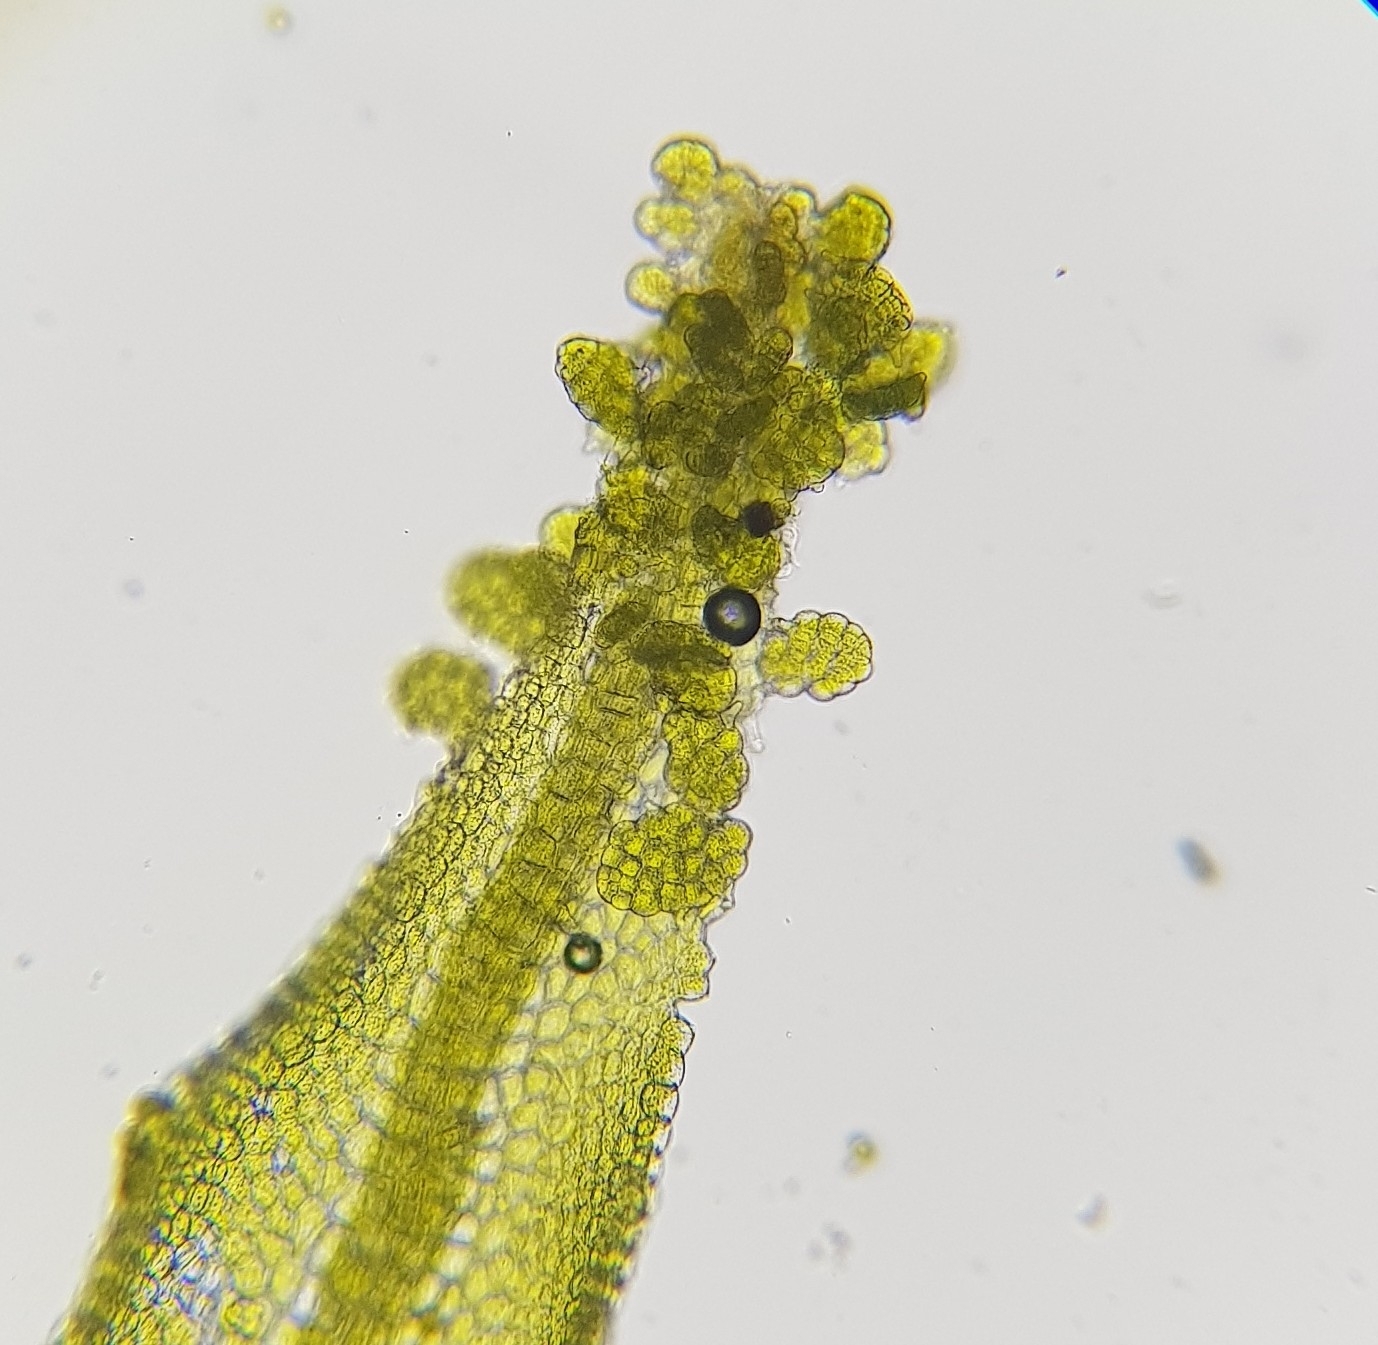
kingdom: Plantae
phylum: Marchantiophyta
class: Jungermanniopsida
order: Metzgeriales
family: Metzgeriaceae
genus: Metzgeria
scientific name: Metzgeria violacea
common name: Blueish veilwort
